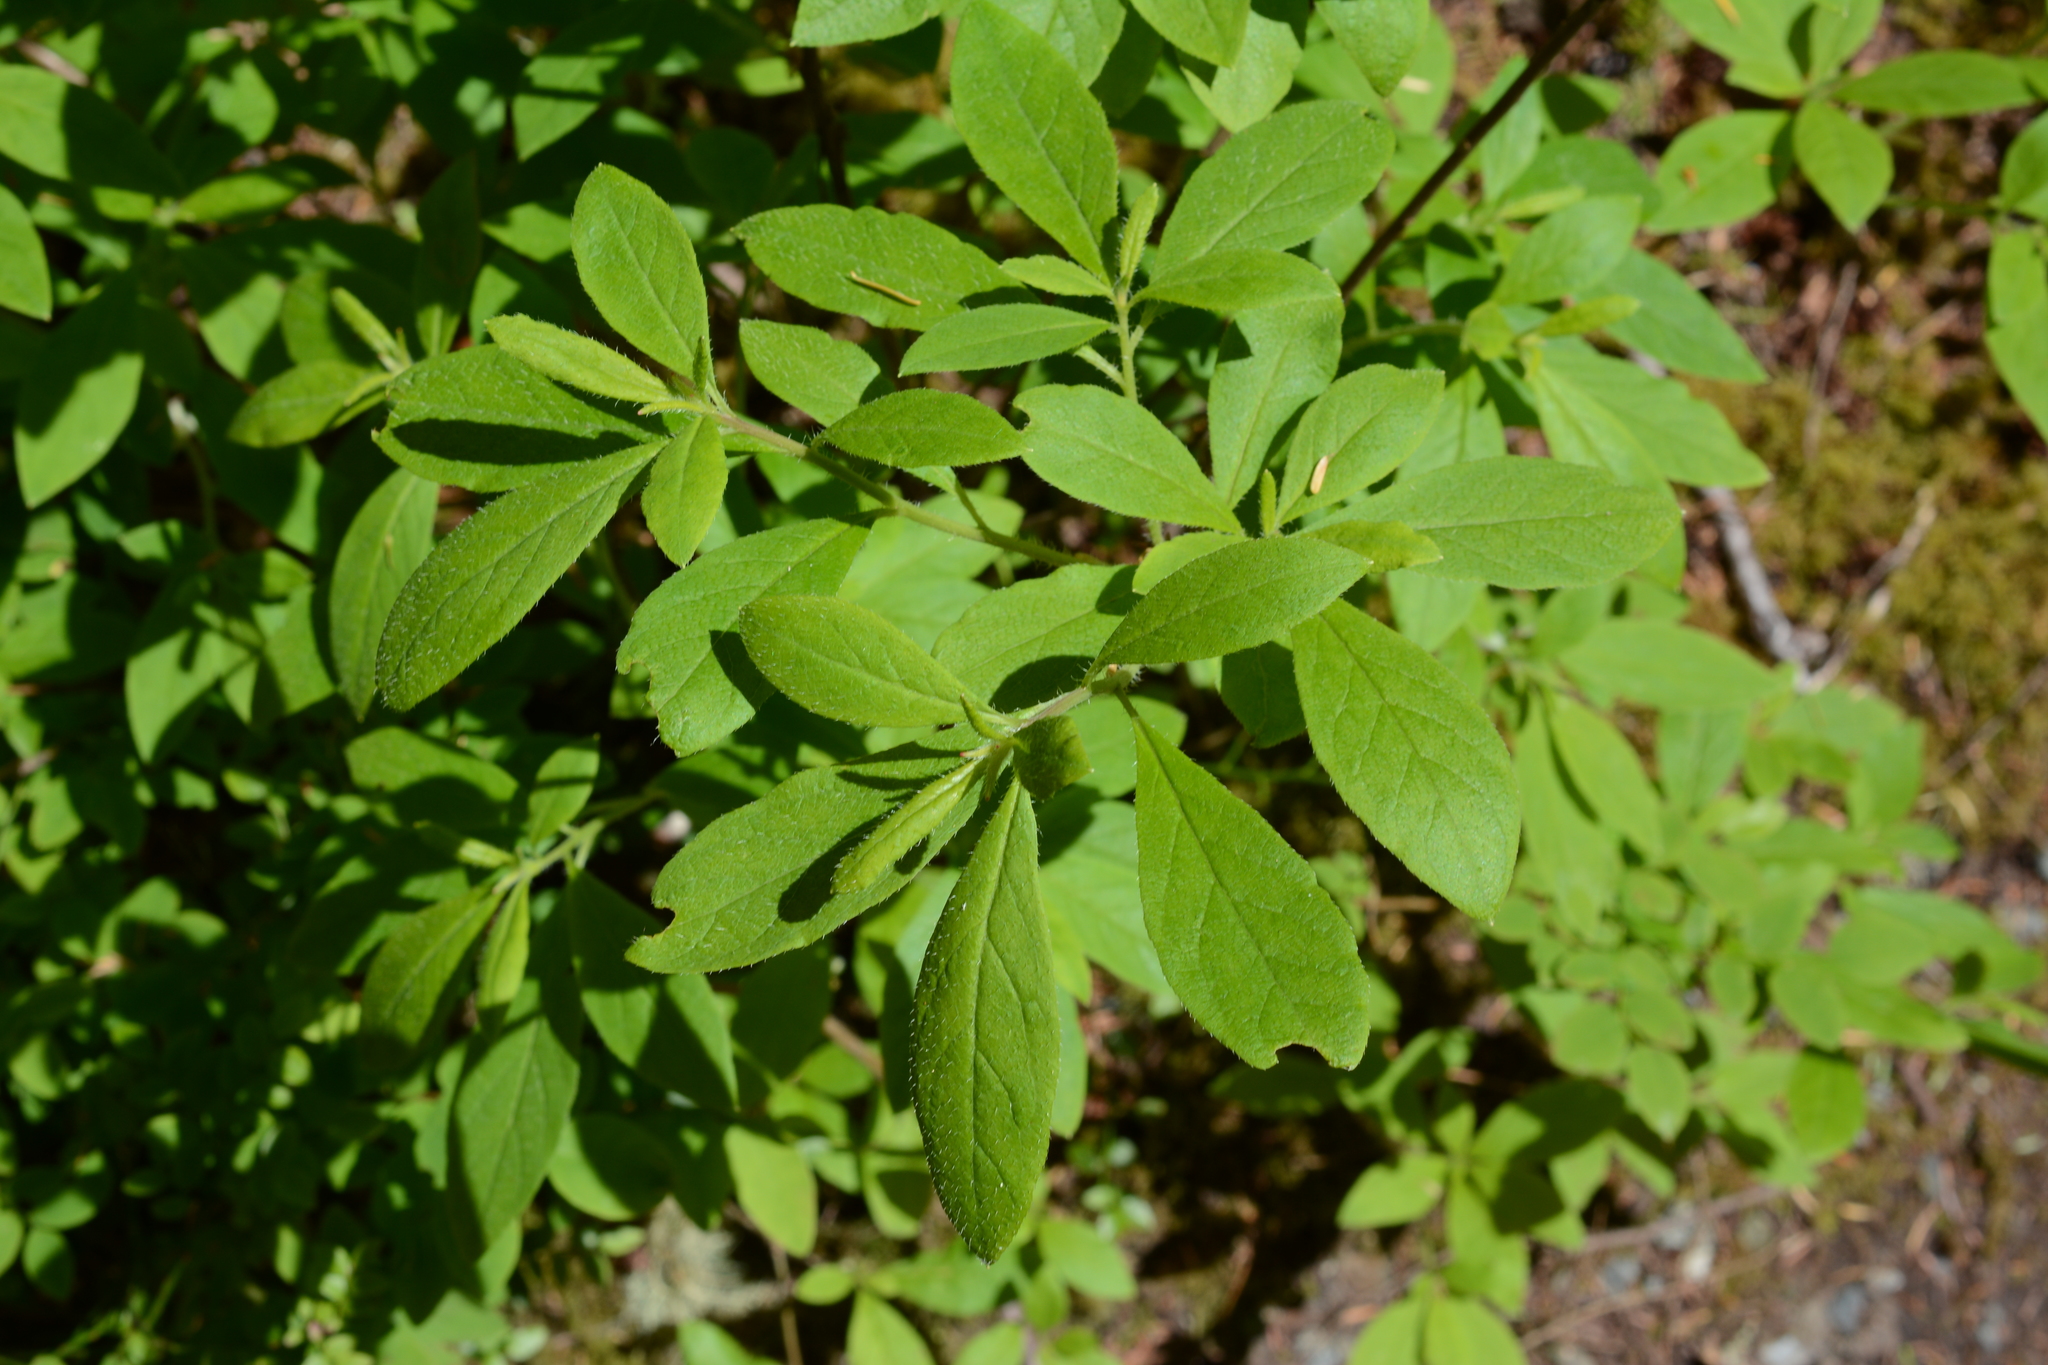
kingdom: Plantae
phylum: Tracheophyta
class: Magnoliopsida
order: Ericales
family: Ericaceae
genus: Rhododendron
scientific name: Rhododendron menziesii
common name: Pacific menziesia
